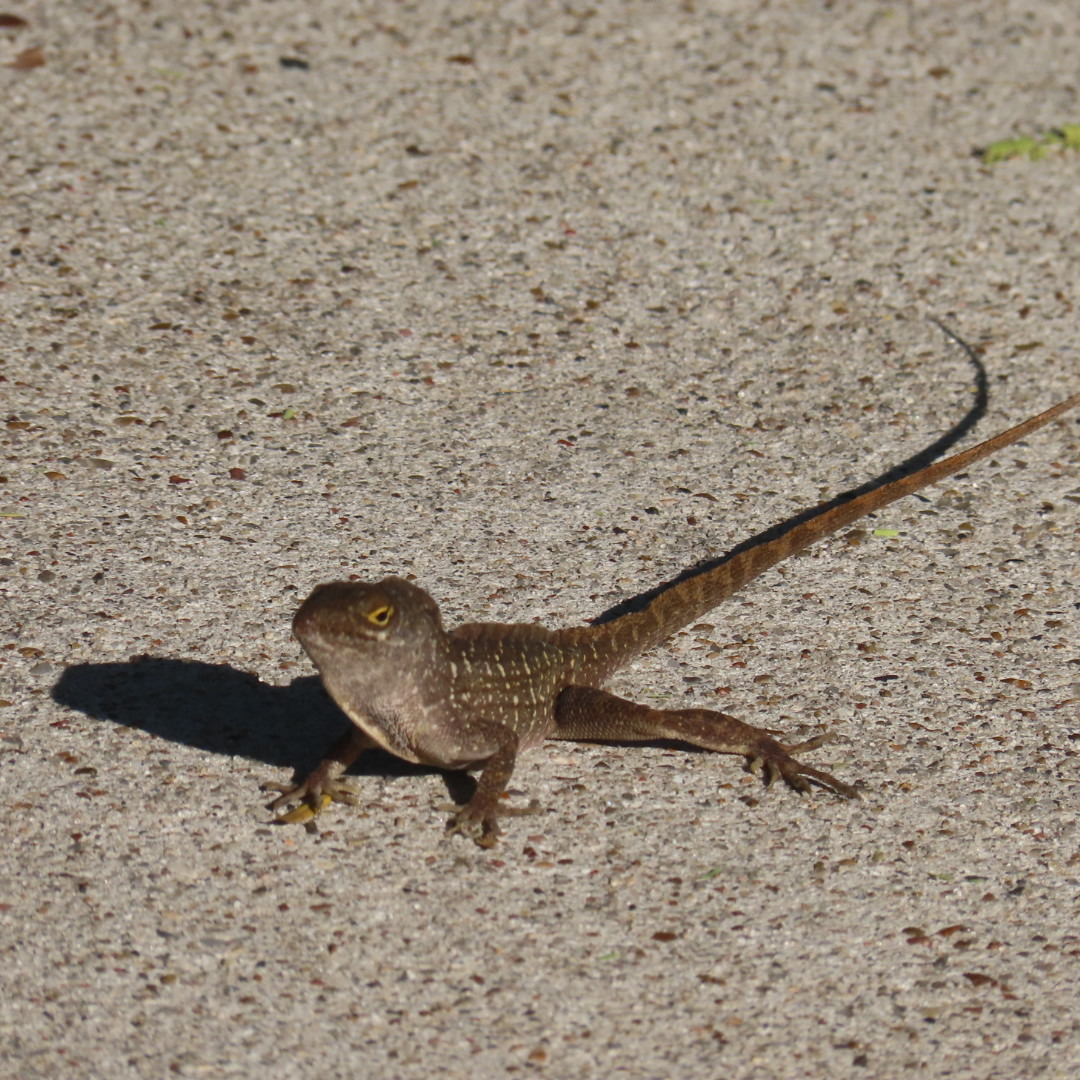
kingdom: Animalia
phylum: Chordata
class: Squamata
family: Dactyloidae
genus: Anolis
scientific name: Anolis sagrei
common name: Brown anole
